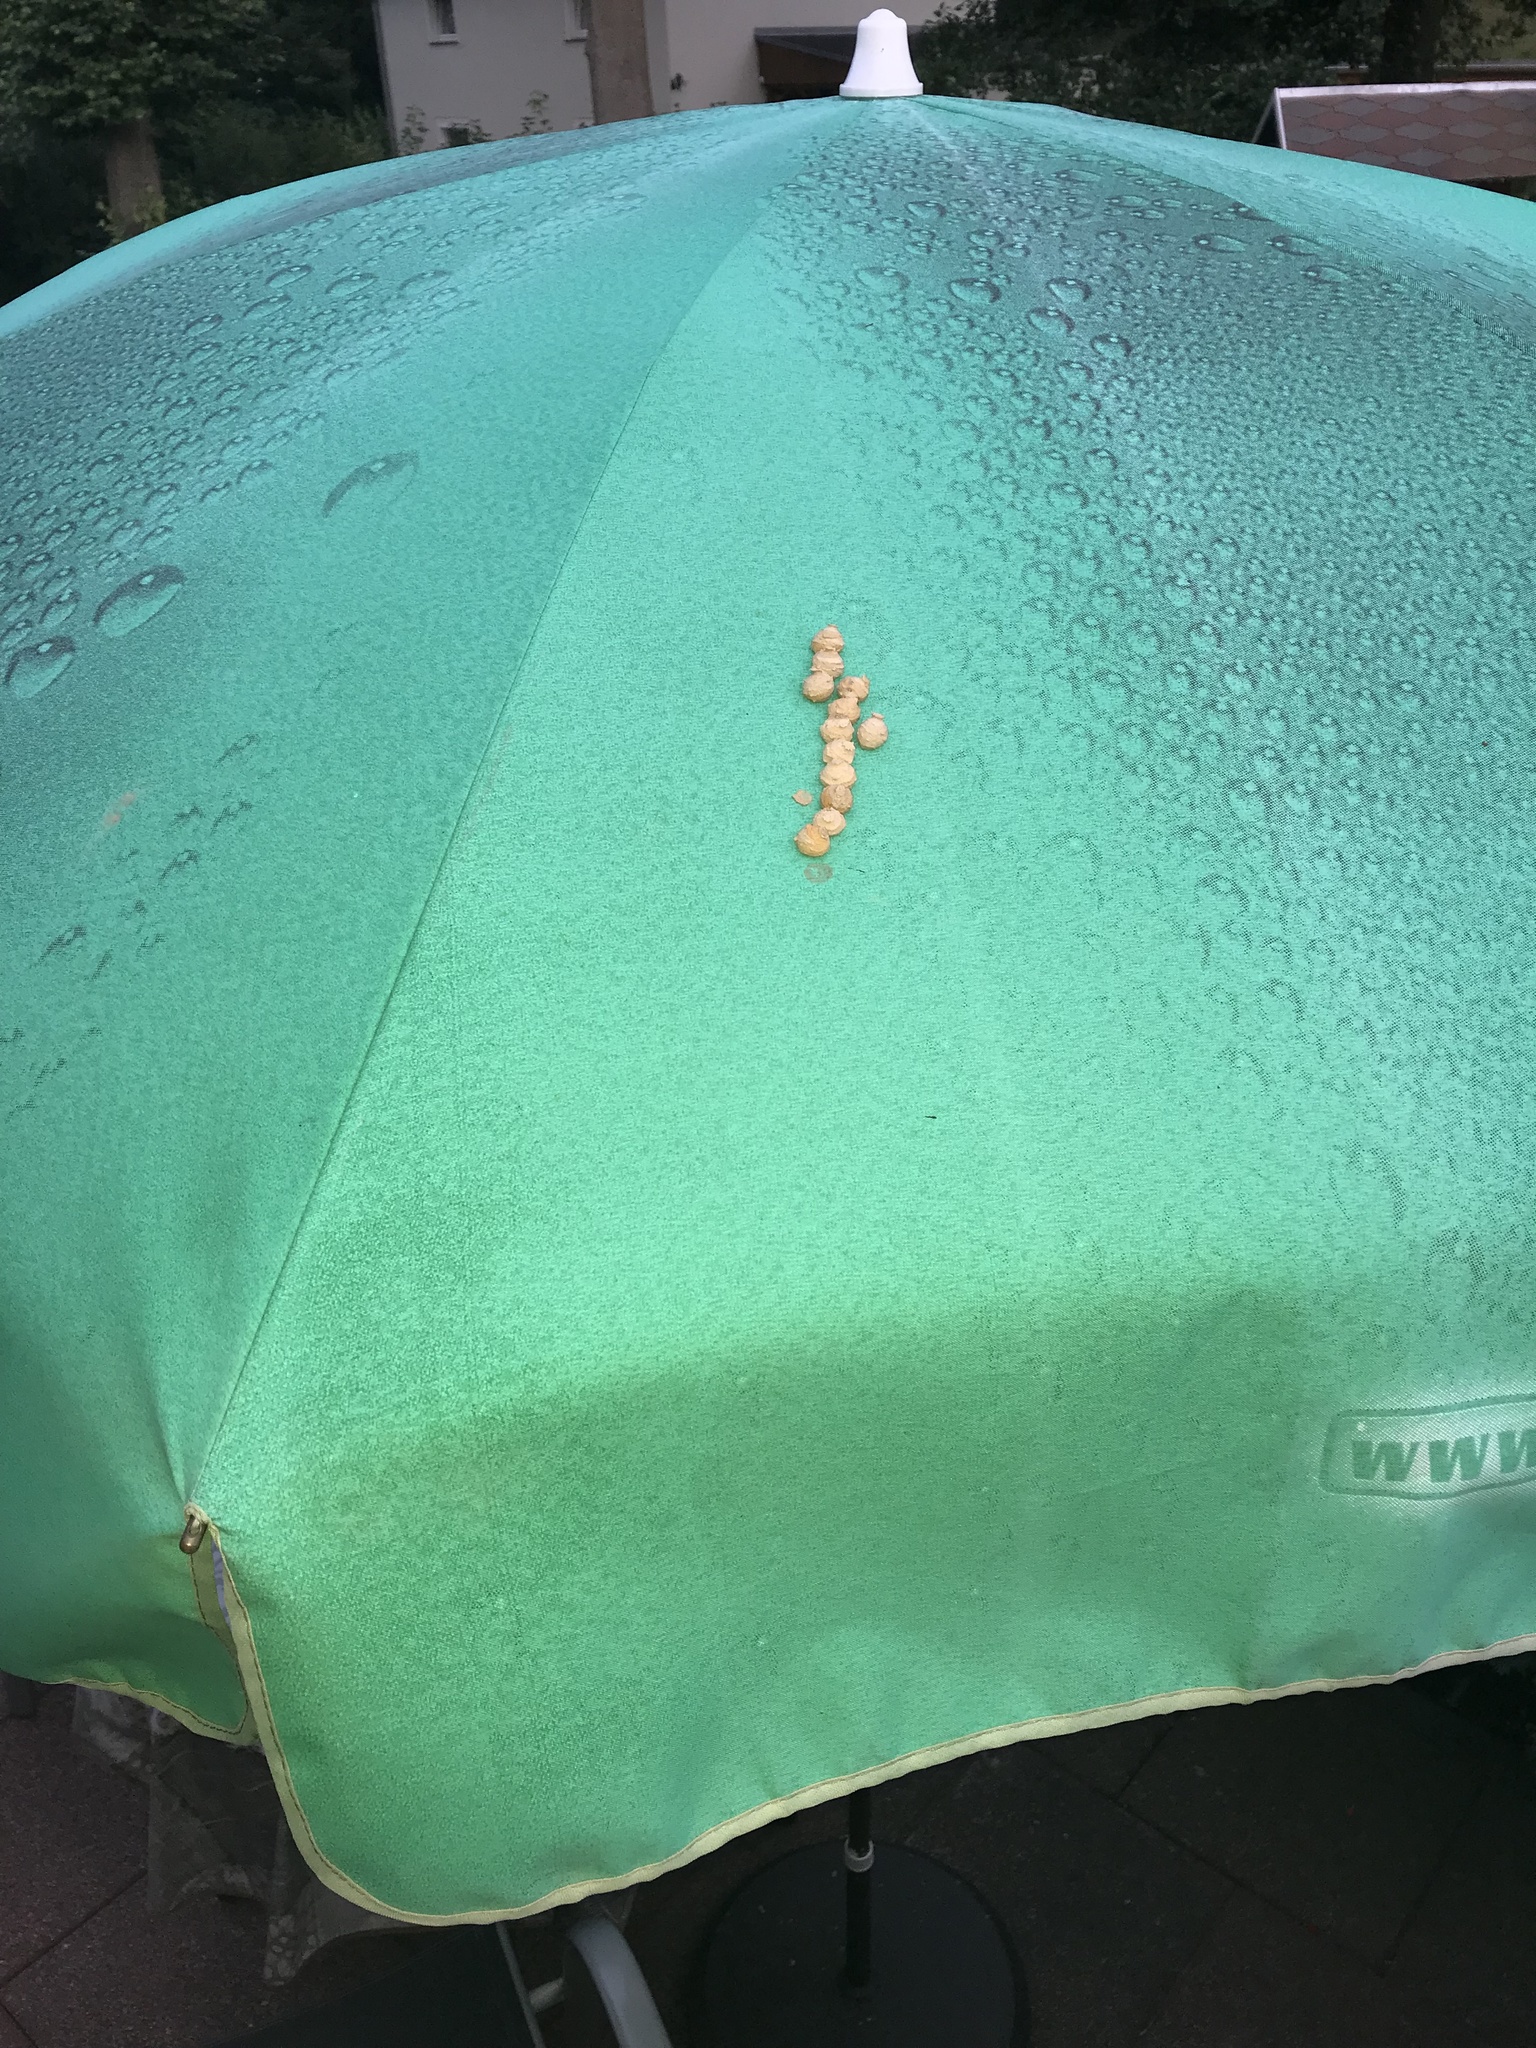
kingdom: Animalia
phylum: Arthropoda
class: Insecta
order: Hymenoptera
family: Vespidae
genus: Eumenes
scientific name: Eumenes
